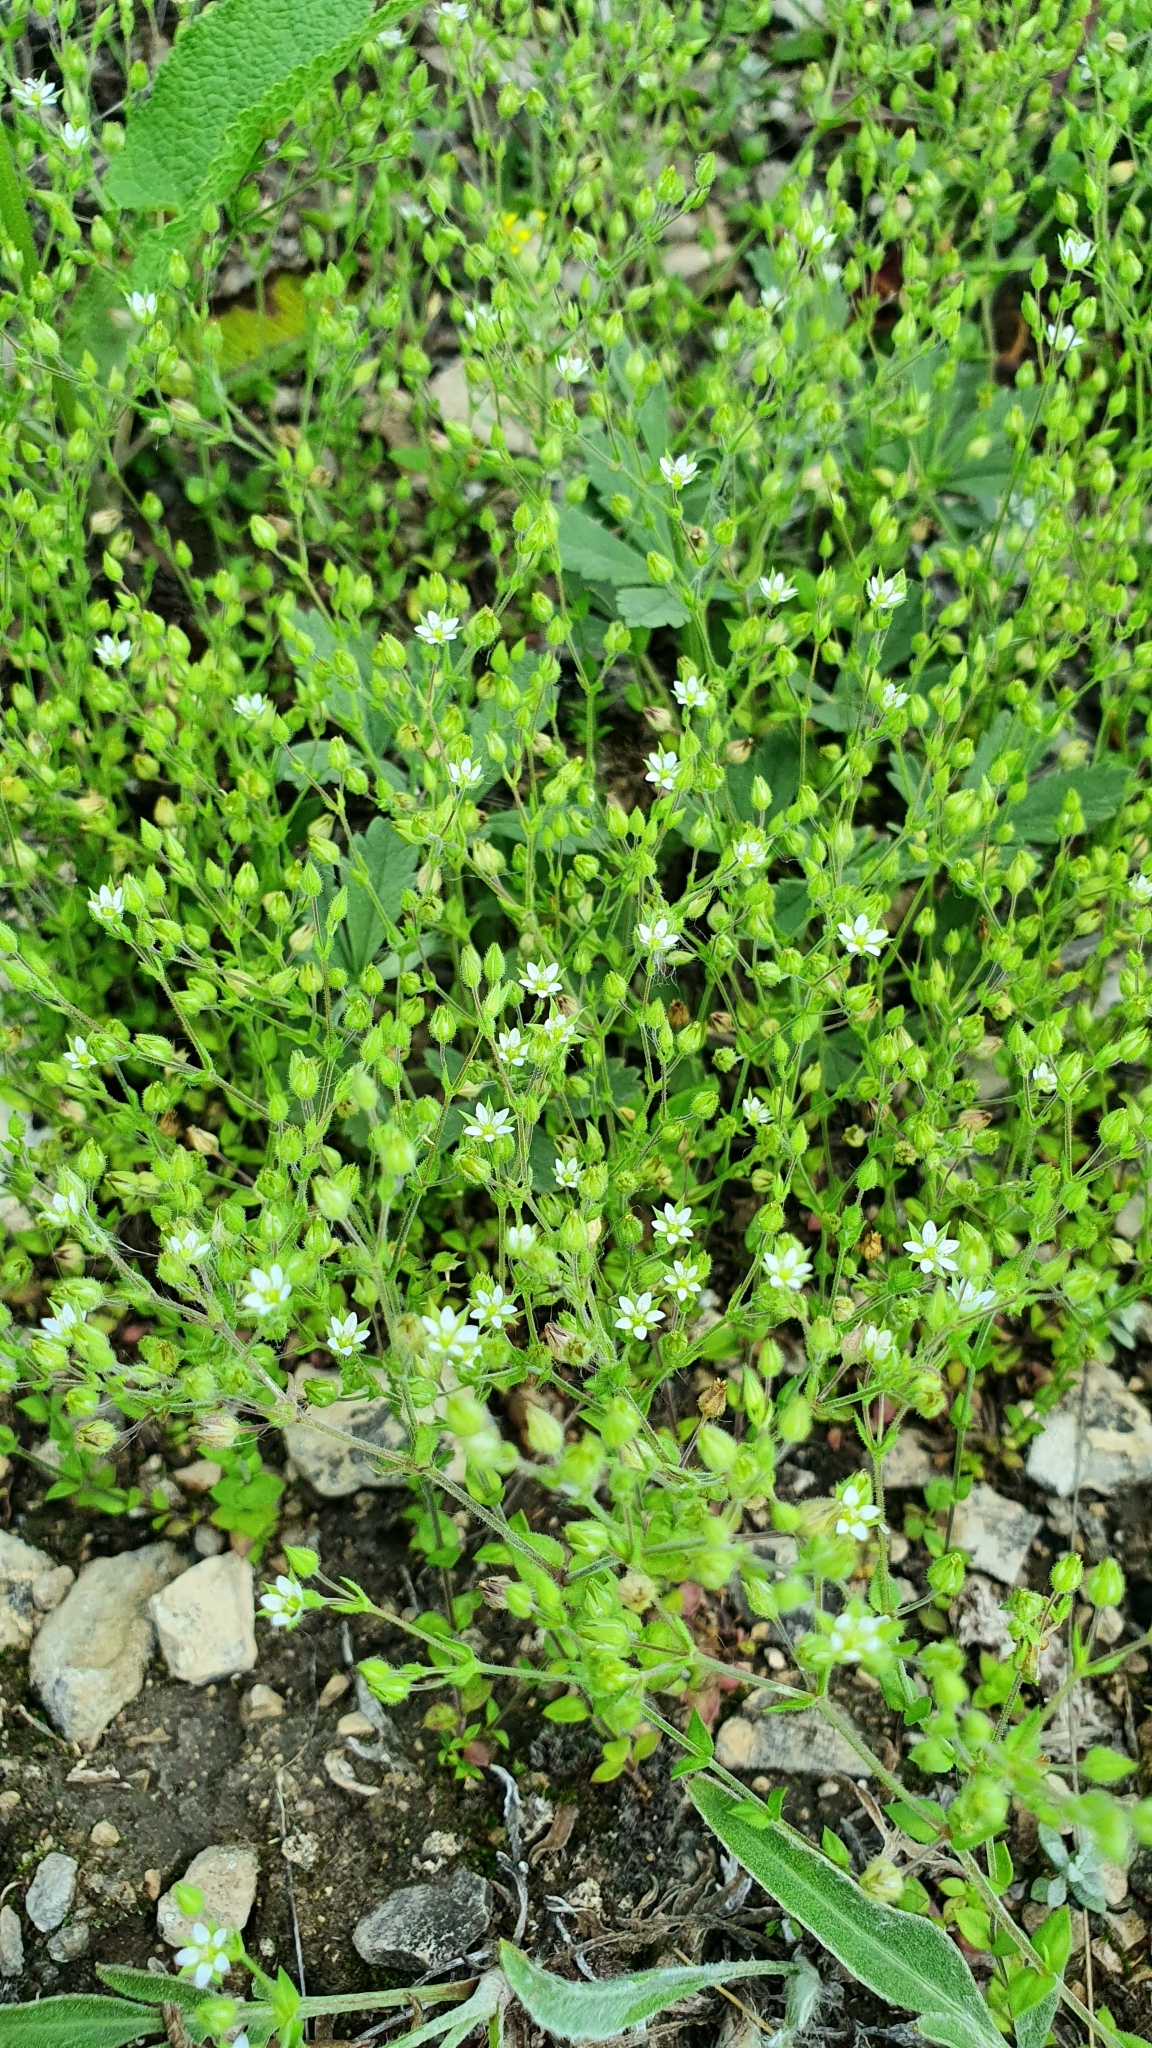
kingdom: Plantae
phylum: Tracheophyta
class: Magnoliopsida
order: Caryophyllales
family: Caryophyllaceae
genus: Arenaria
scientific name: Arenaria serpyllifolia
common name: Thyme-leaved sandwort
